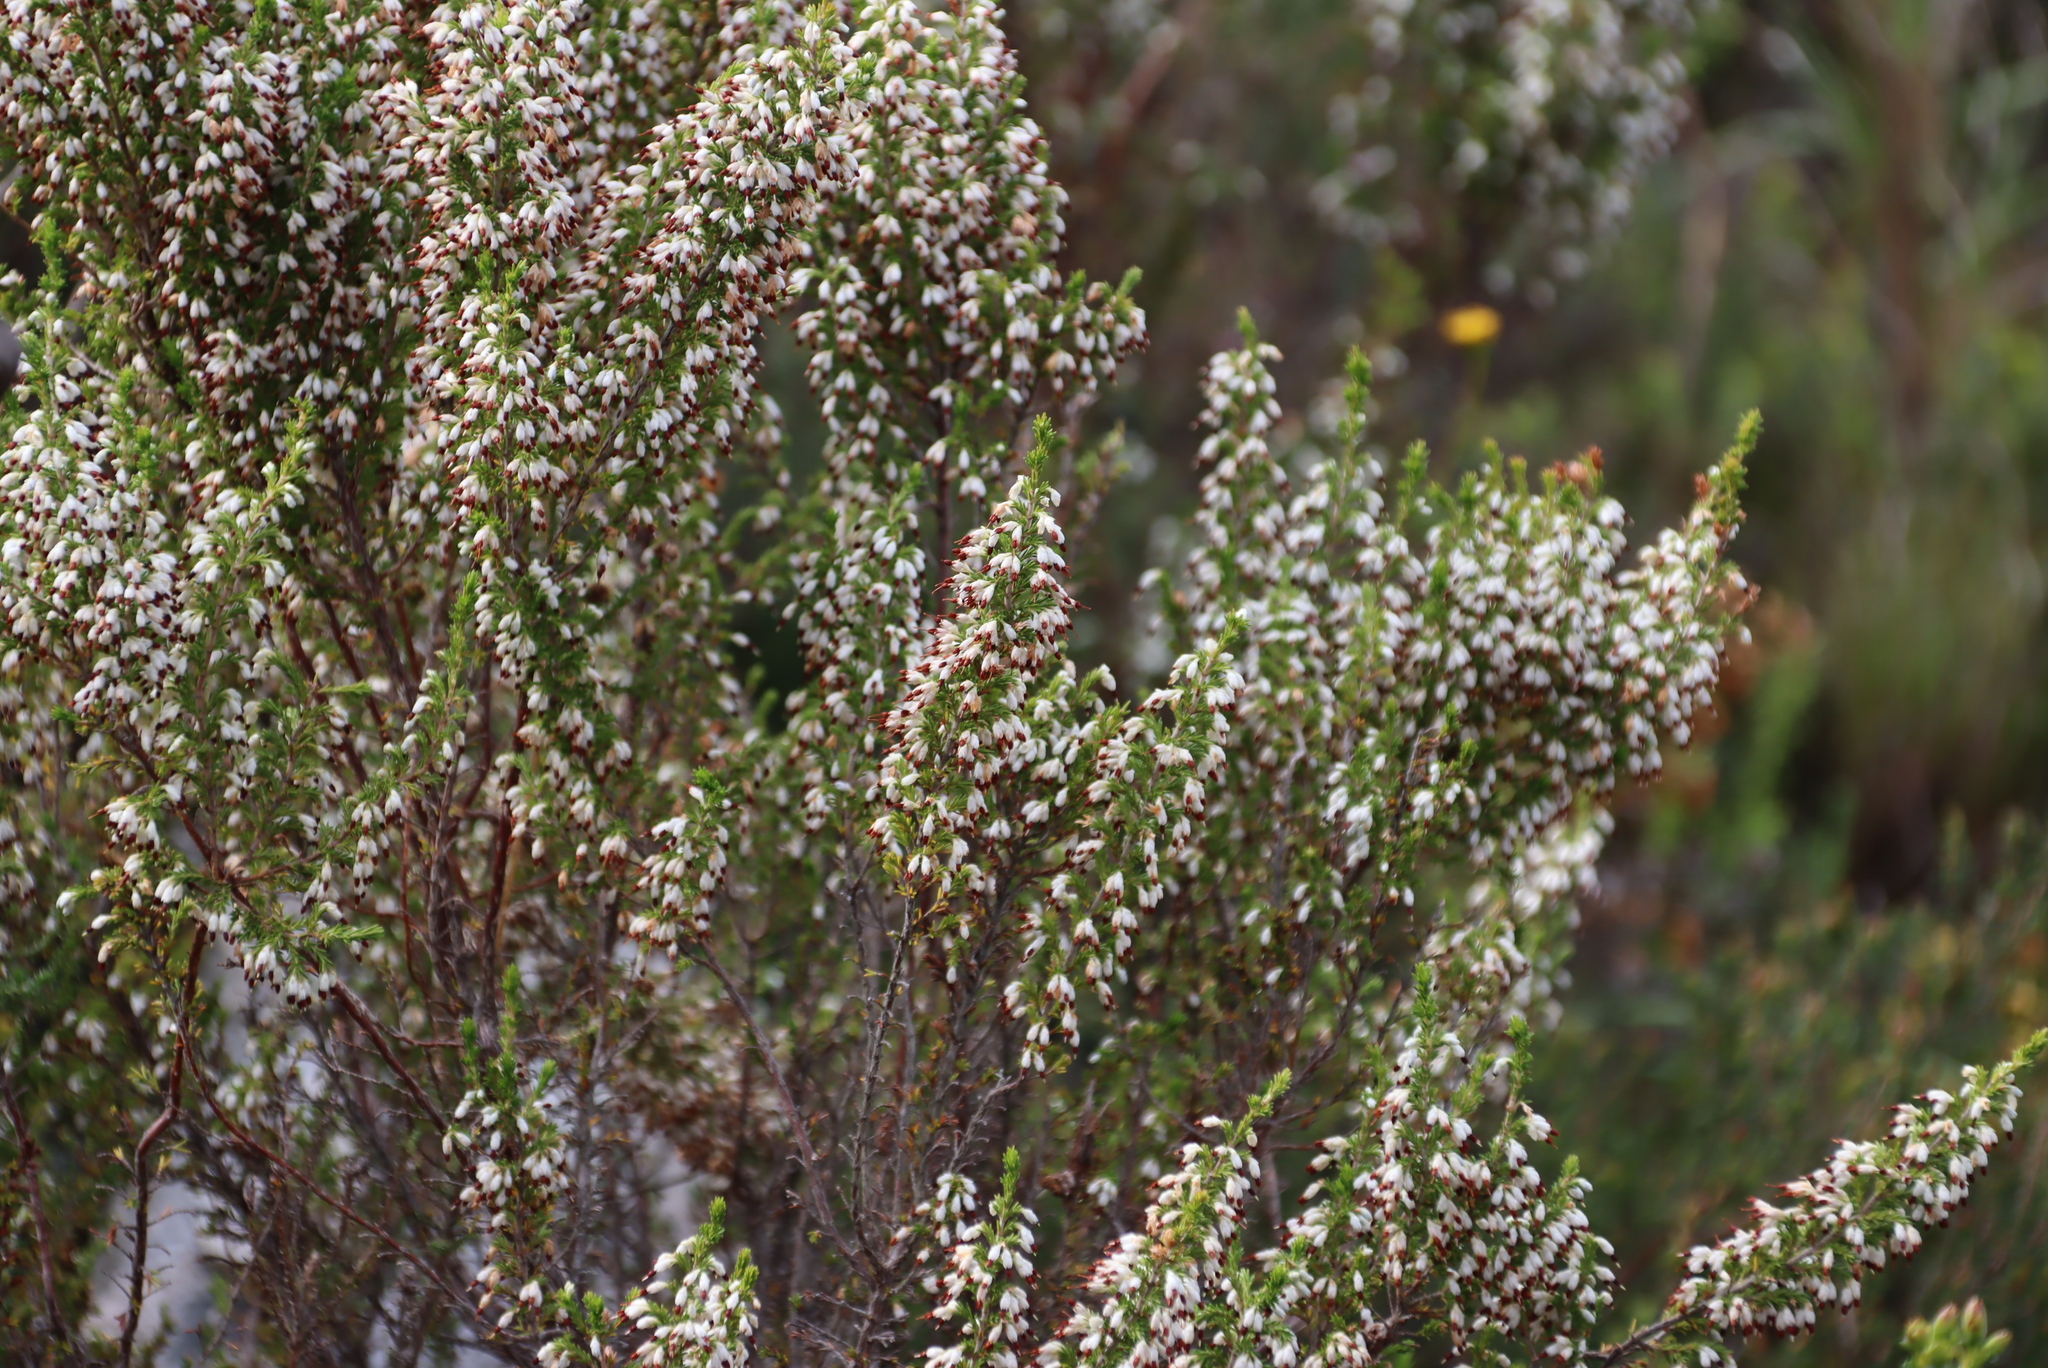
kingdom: Plantae
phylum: Tracheophyta
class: Magnoliopsida
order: Ericales
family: Ericaceae
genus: Erica
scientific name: Erica imbricata
